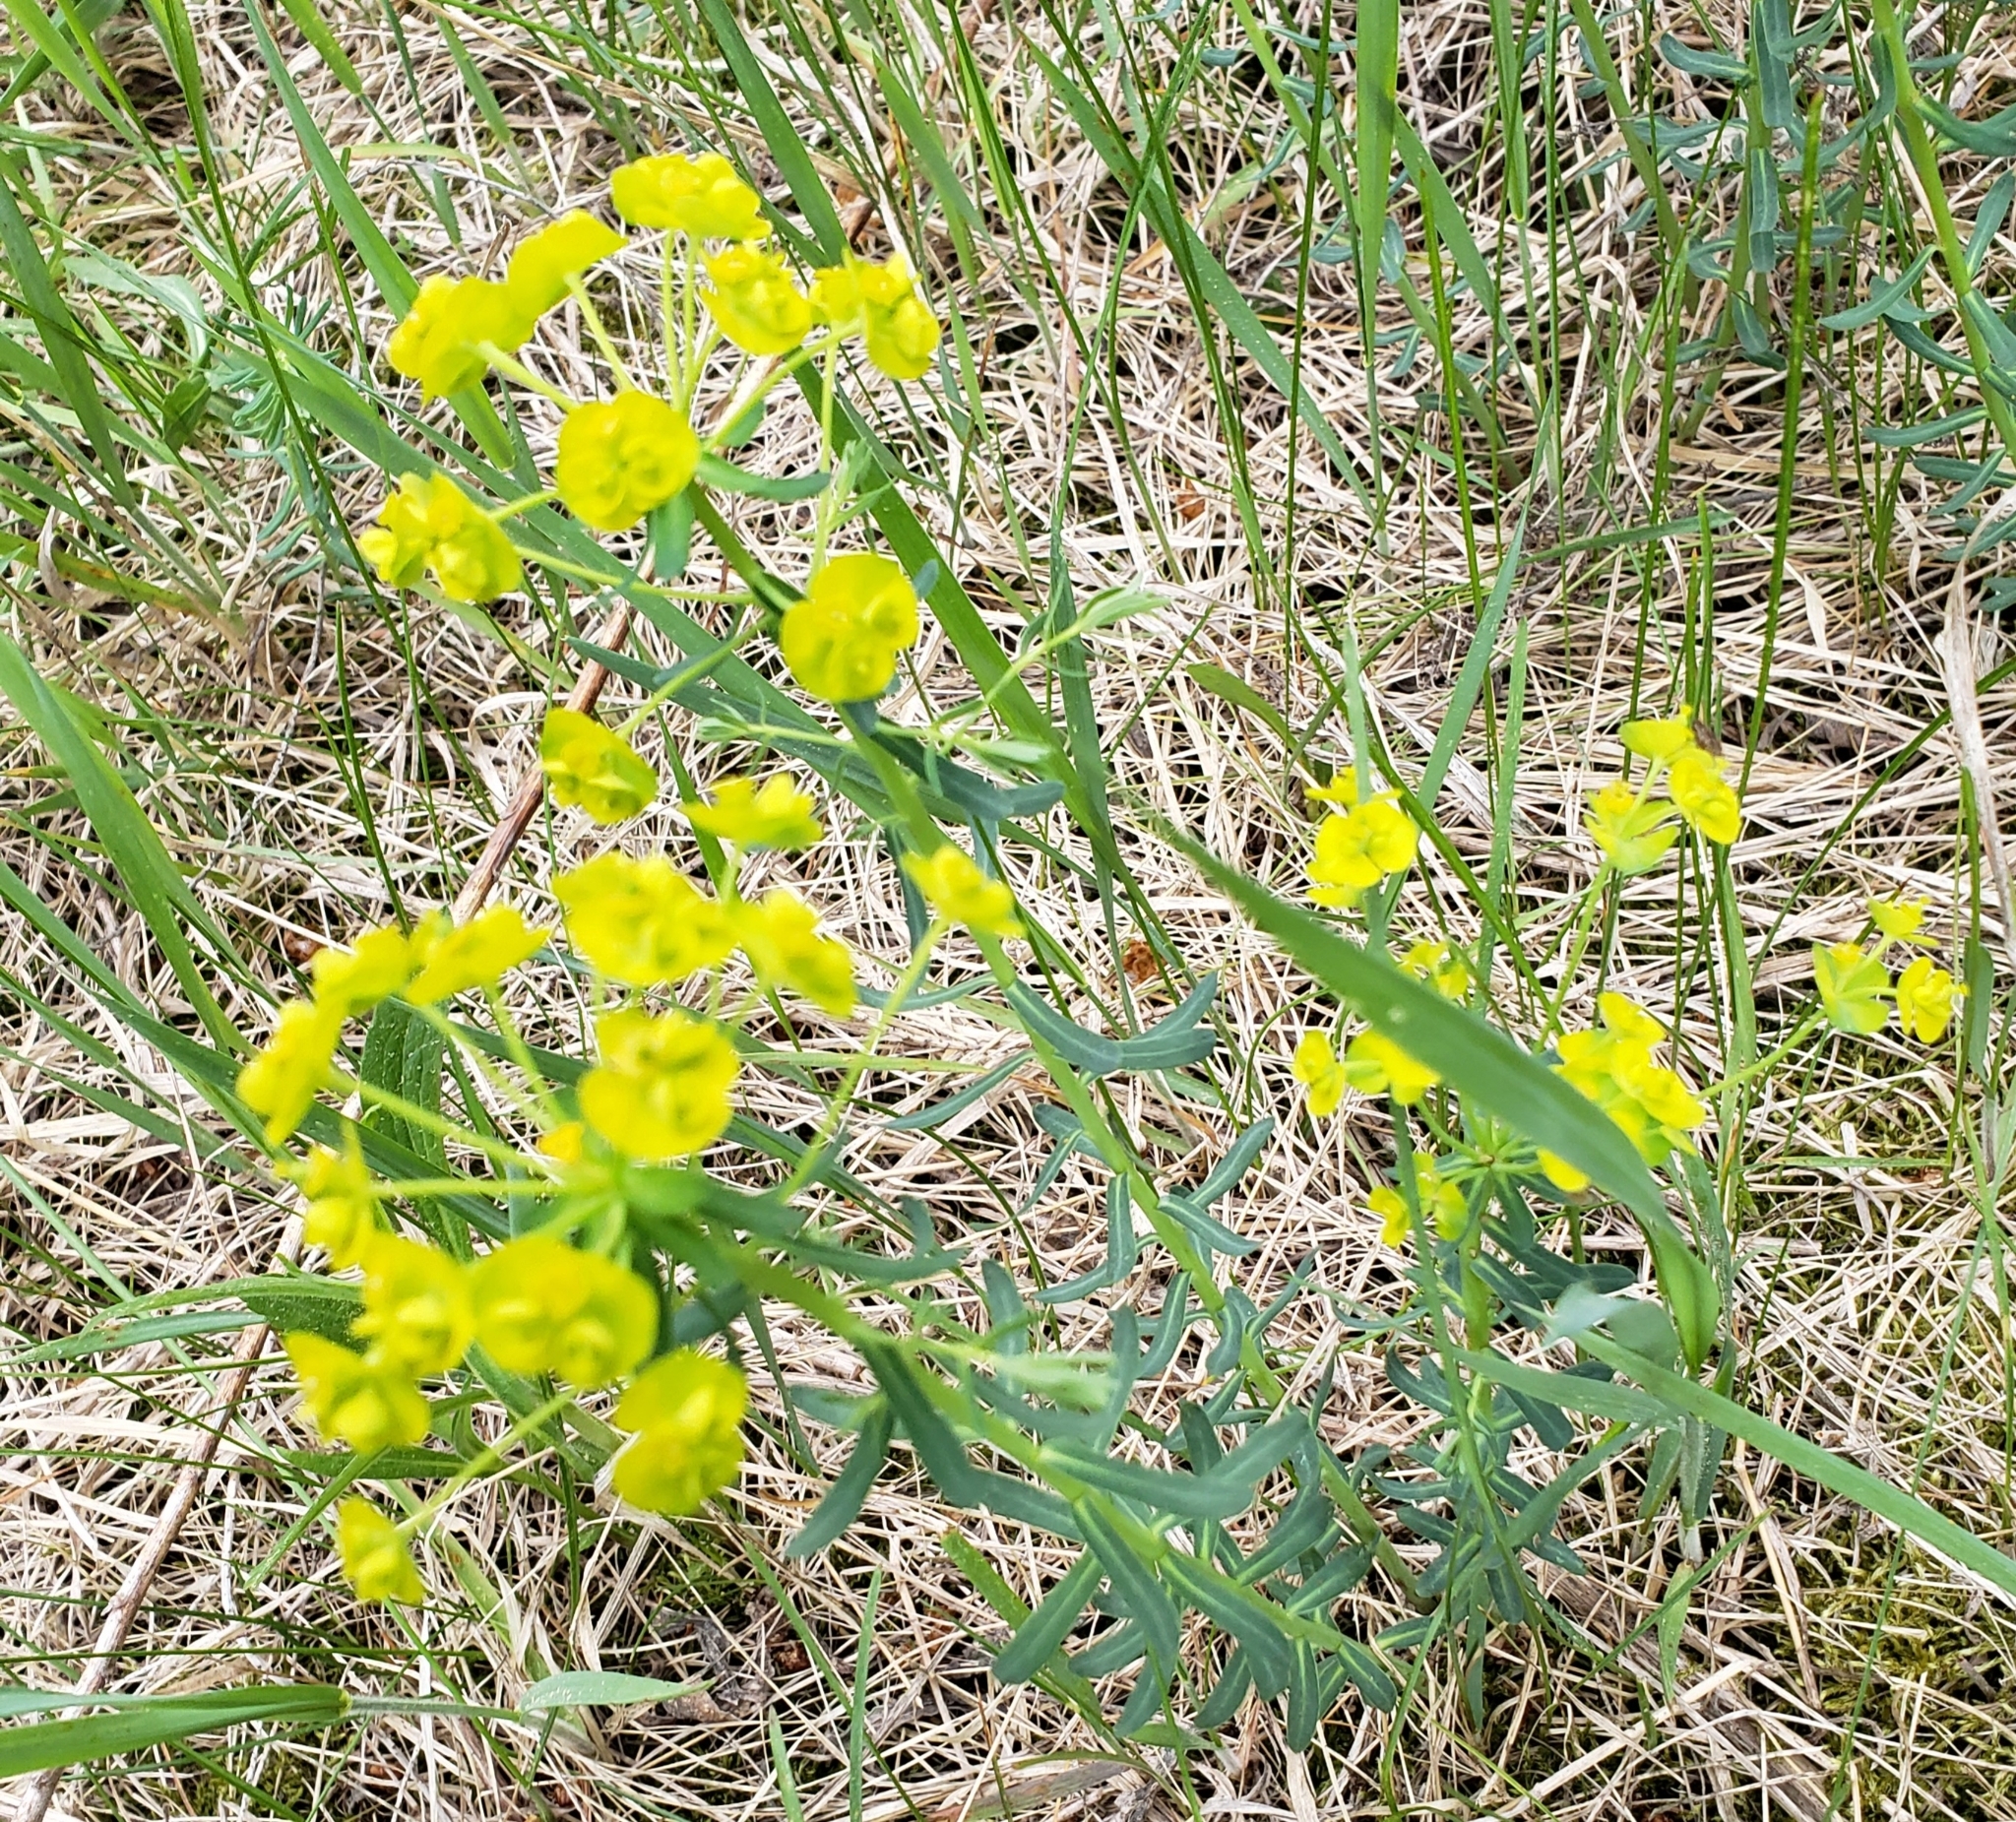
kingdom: Plantae
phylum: Tracheophyta
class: Magnoliopsida
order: Malpighiales
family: Euphorbiaceae
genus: Euphorbia
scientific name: Euphorbia virgata
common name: Leafy spurge
